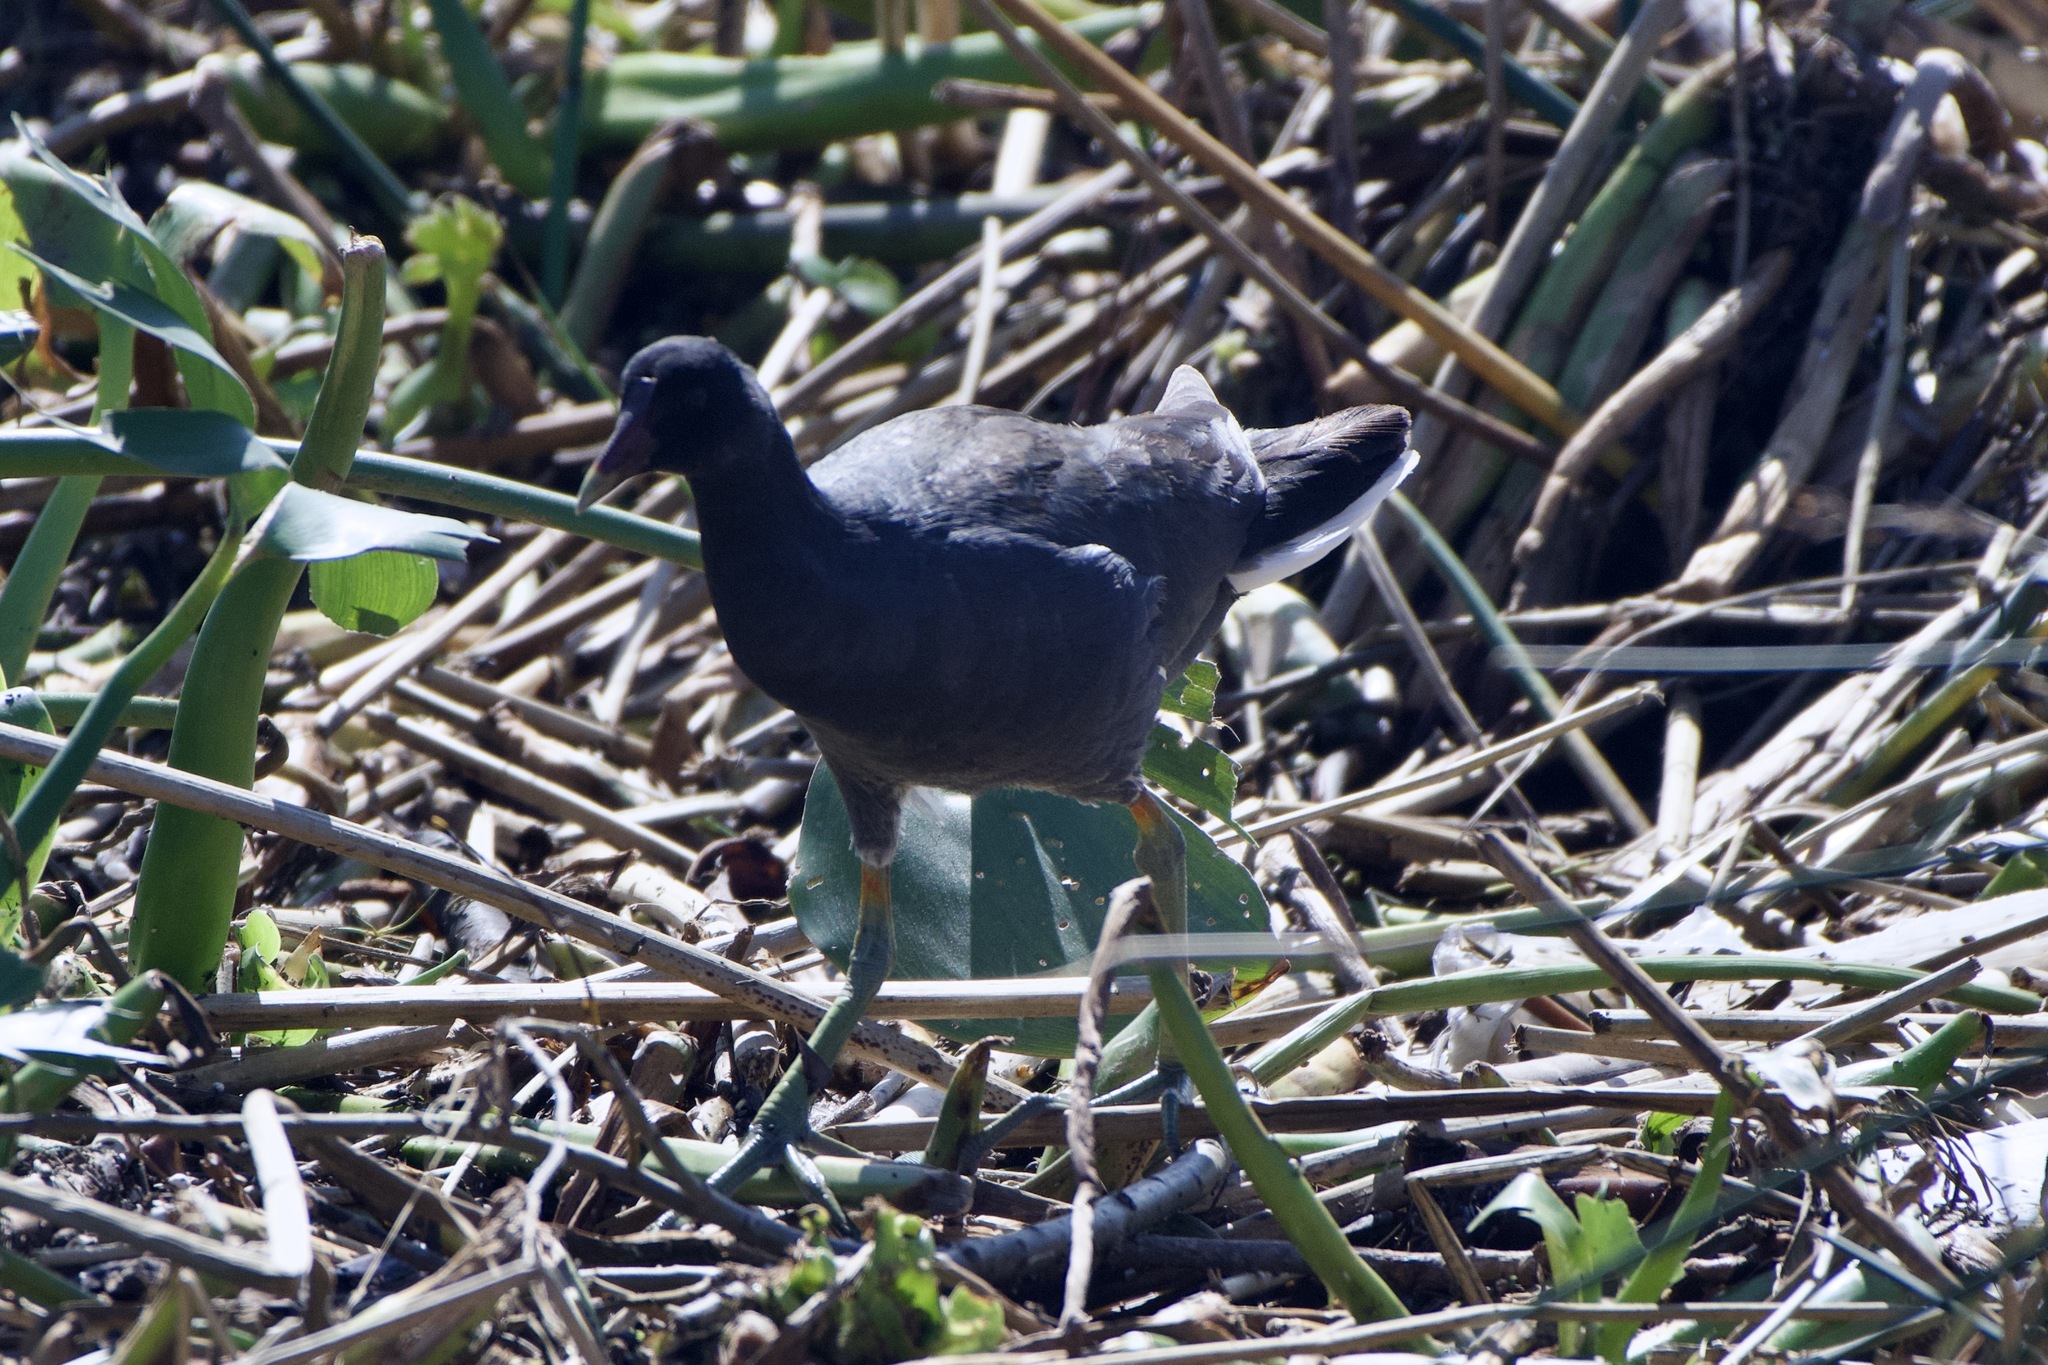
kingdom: Animalia
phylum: Chordata
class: Aves
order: Gruiformes
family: Rallidae
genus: Gallinula
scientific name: Gallinula chloropus
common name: Common moorhen
